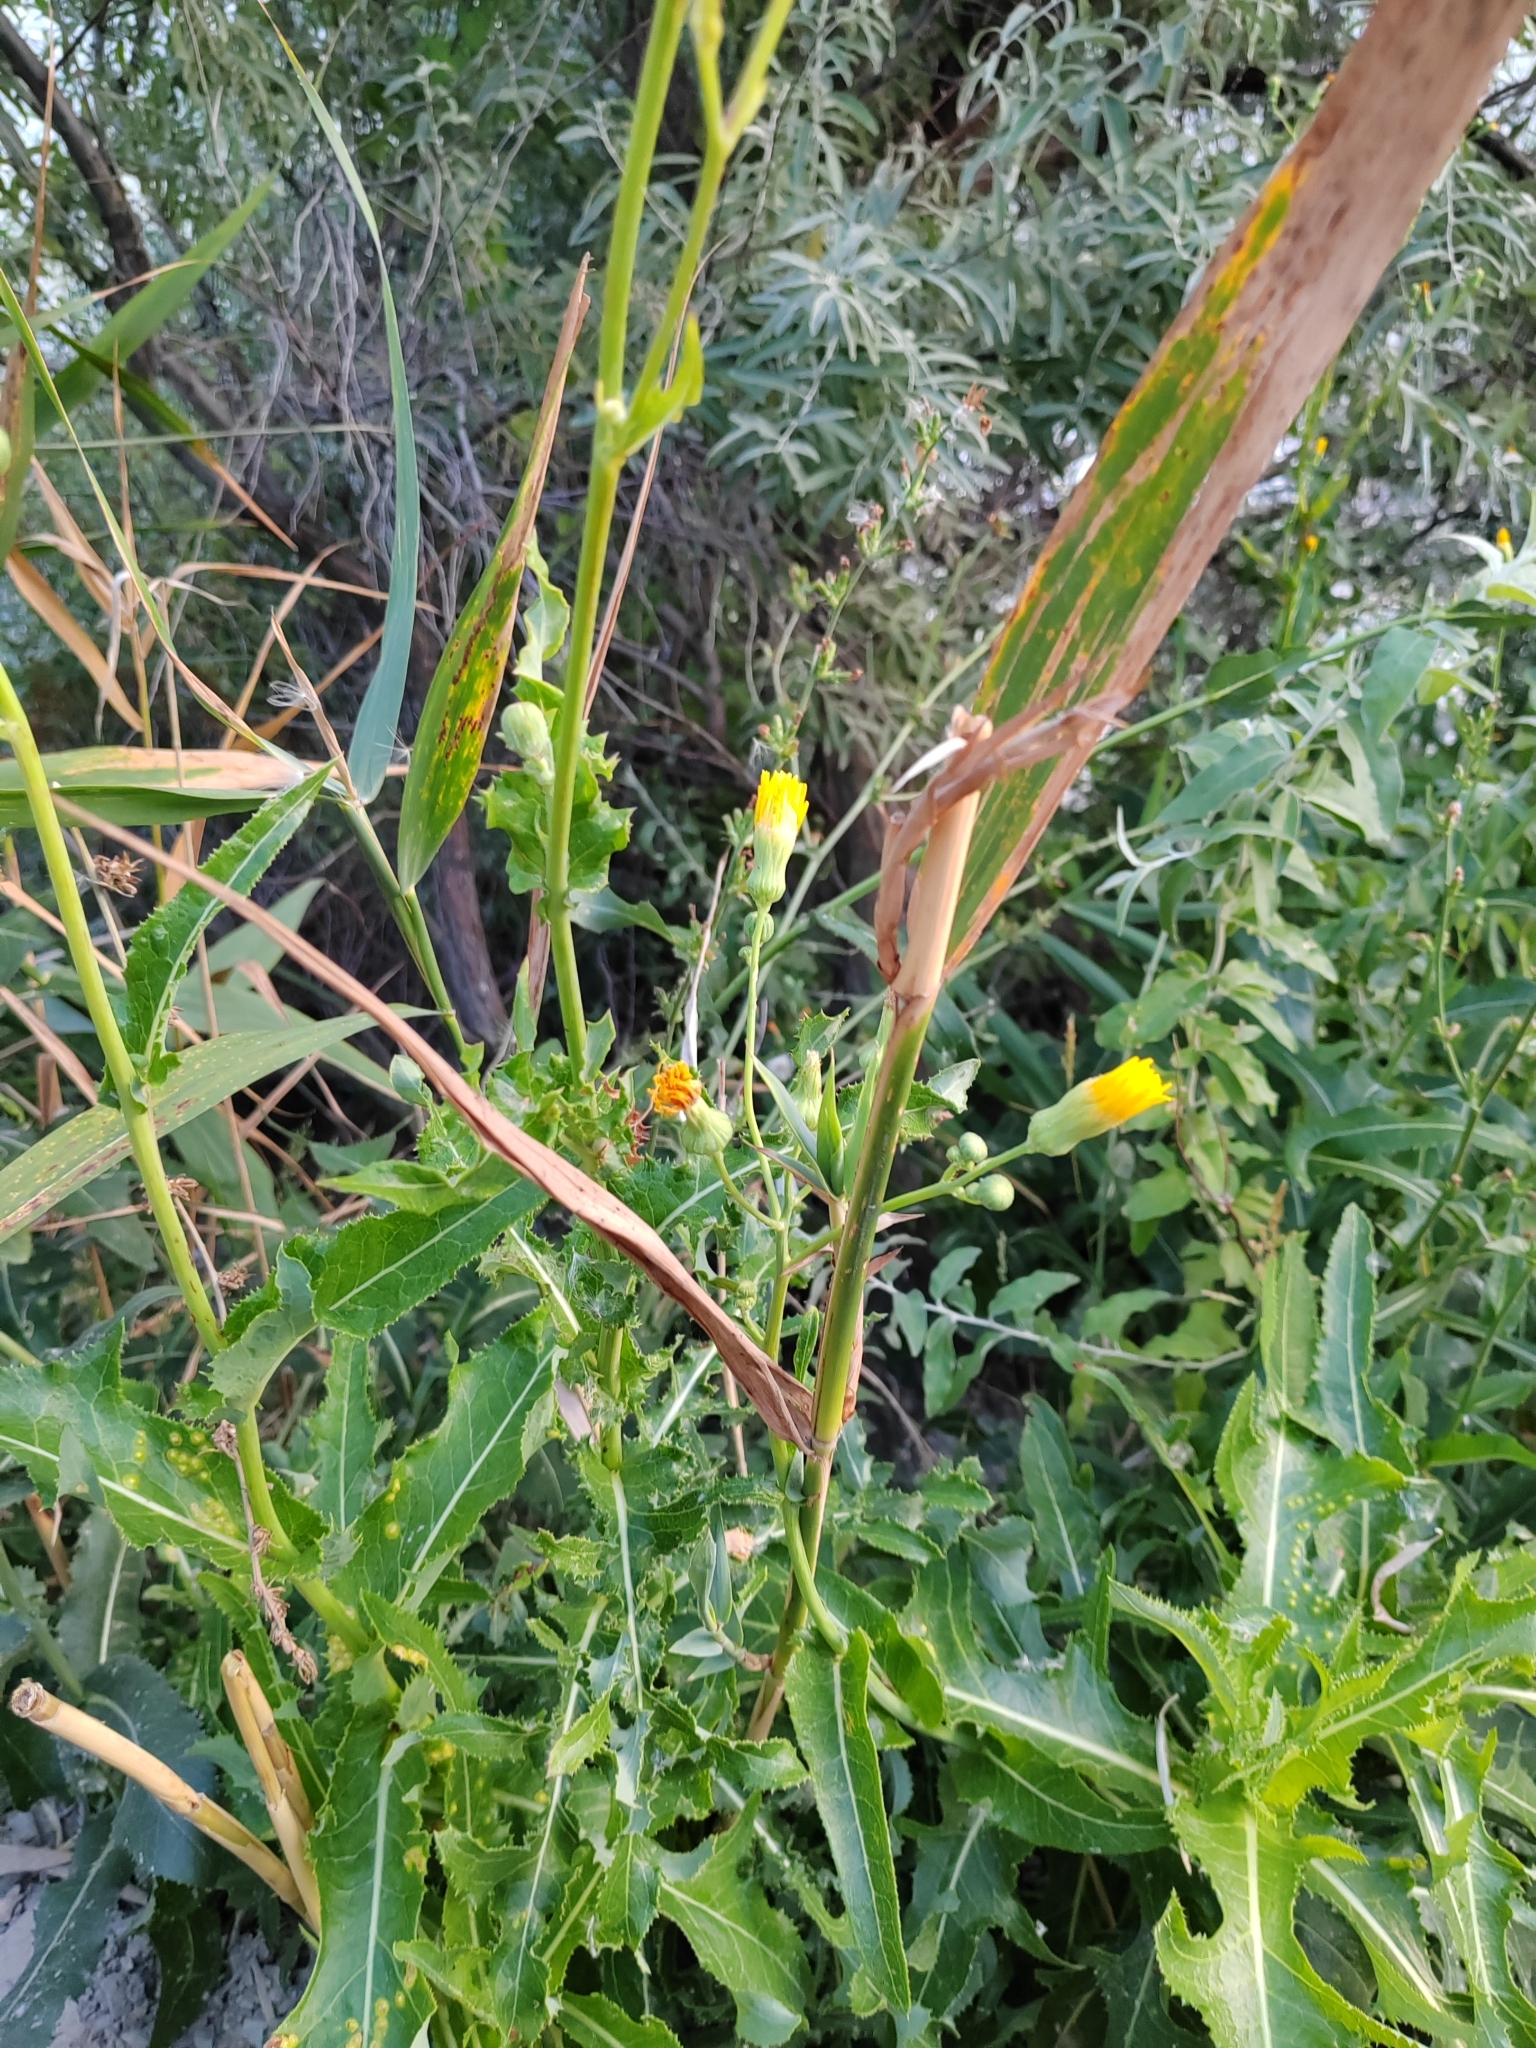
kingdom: Plantae
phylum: Tracheophyta
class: Magnoliopsida
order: Asterales
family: Asteraceae
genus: Sonchus
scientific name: Sonchus arvensis
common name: Perennial sow-thistle
